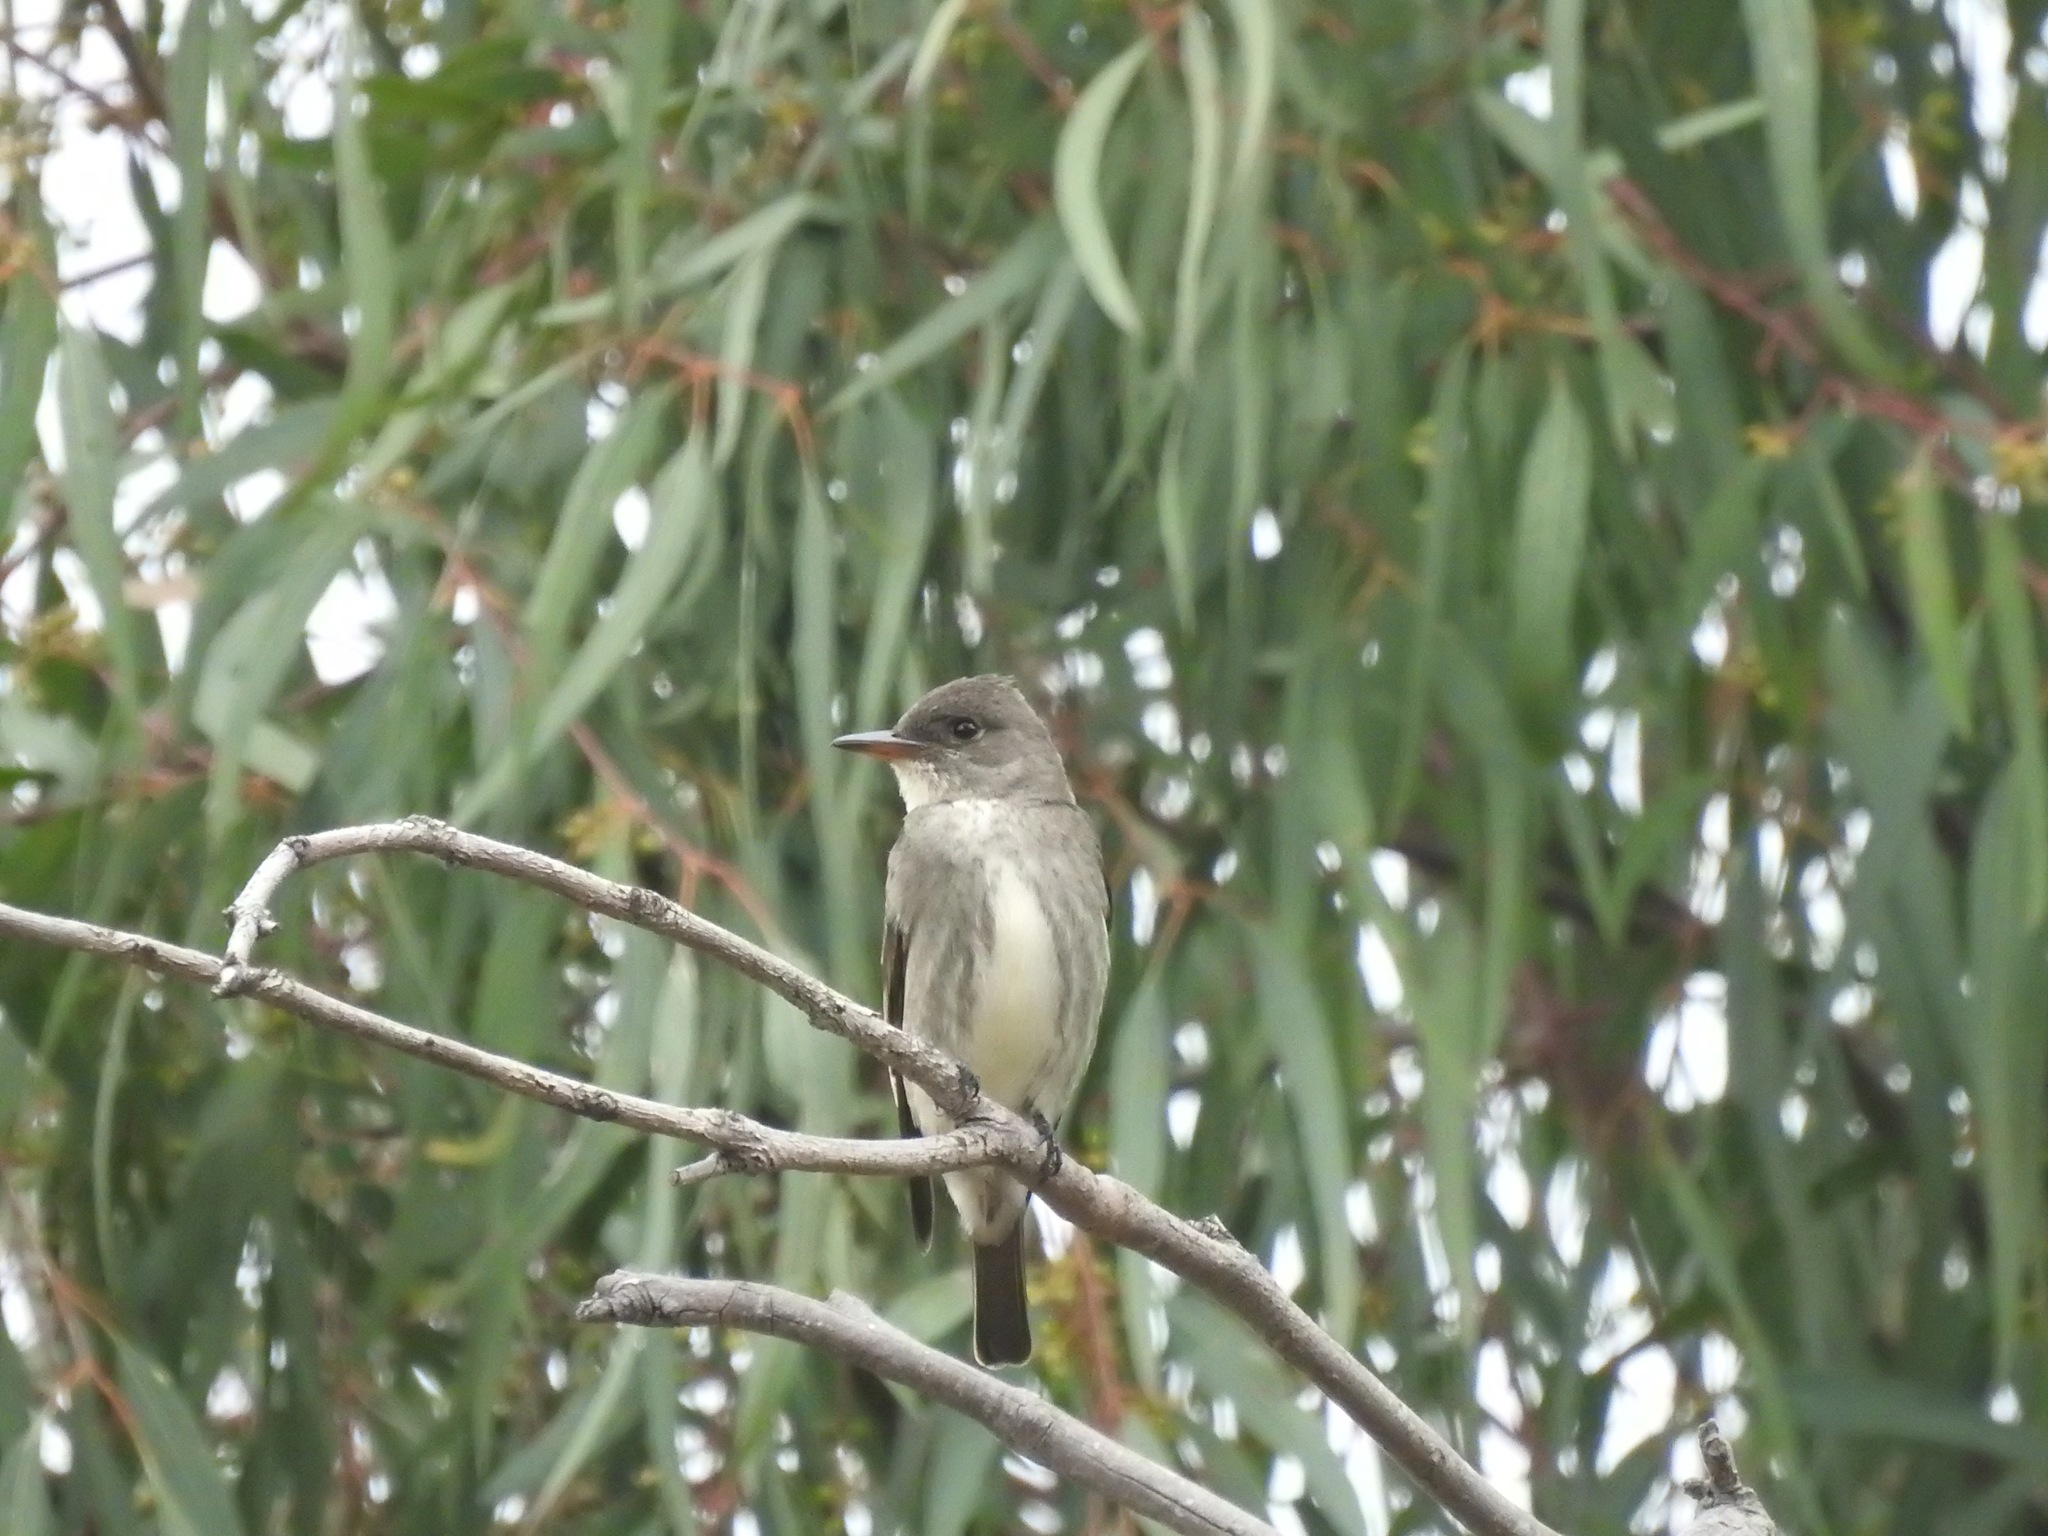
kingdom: Animalia
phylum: Chordata
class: Aves
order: Passeriformes
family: Tyrannidae
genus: Contopus
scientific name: Contopus cooperi
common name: Olive-sided flycatcher
